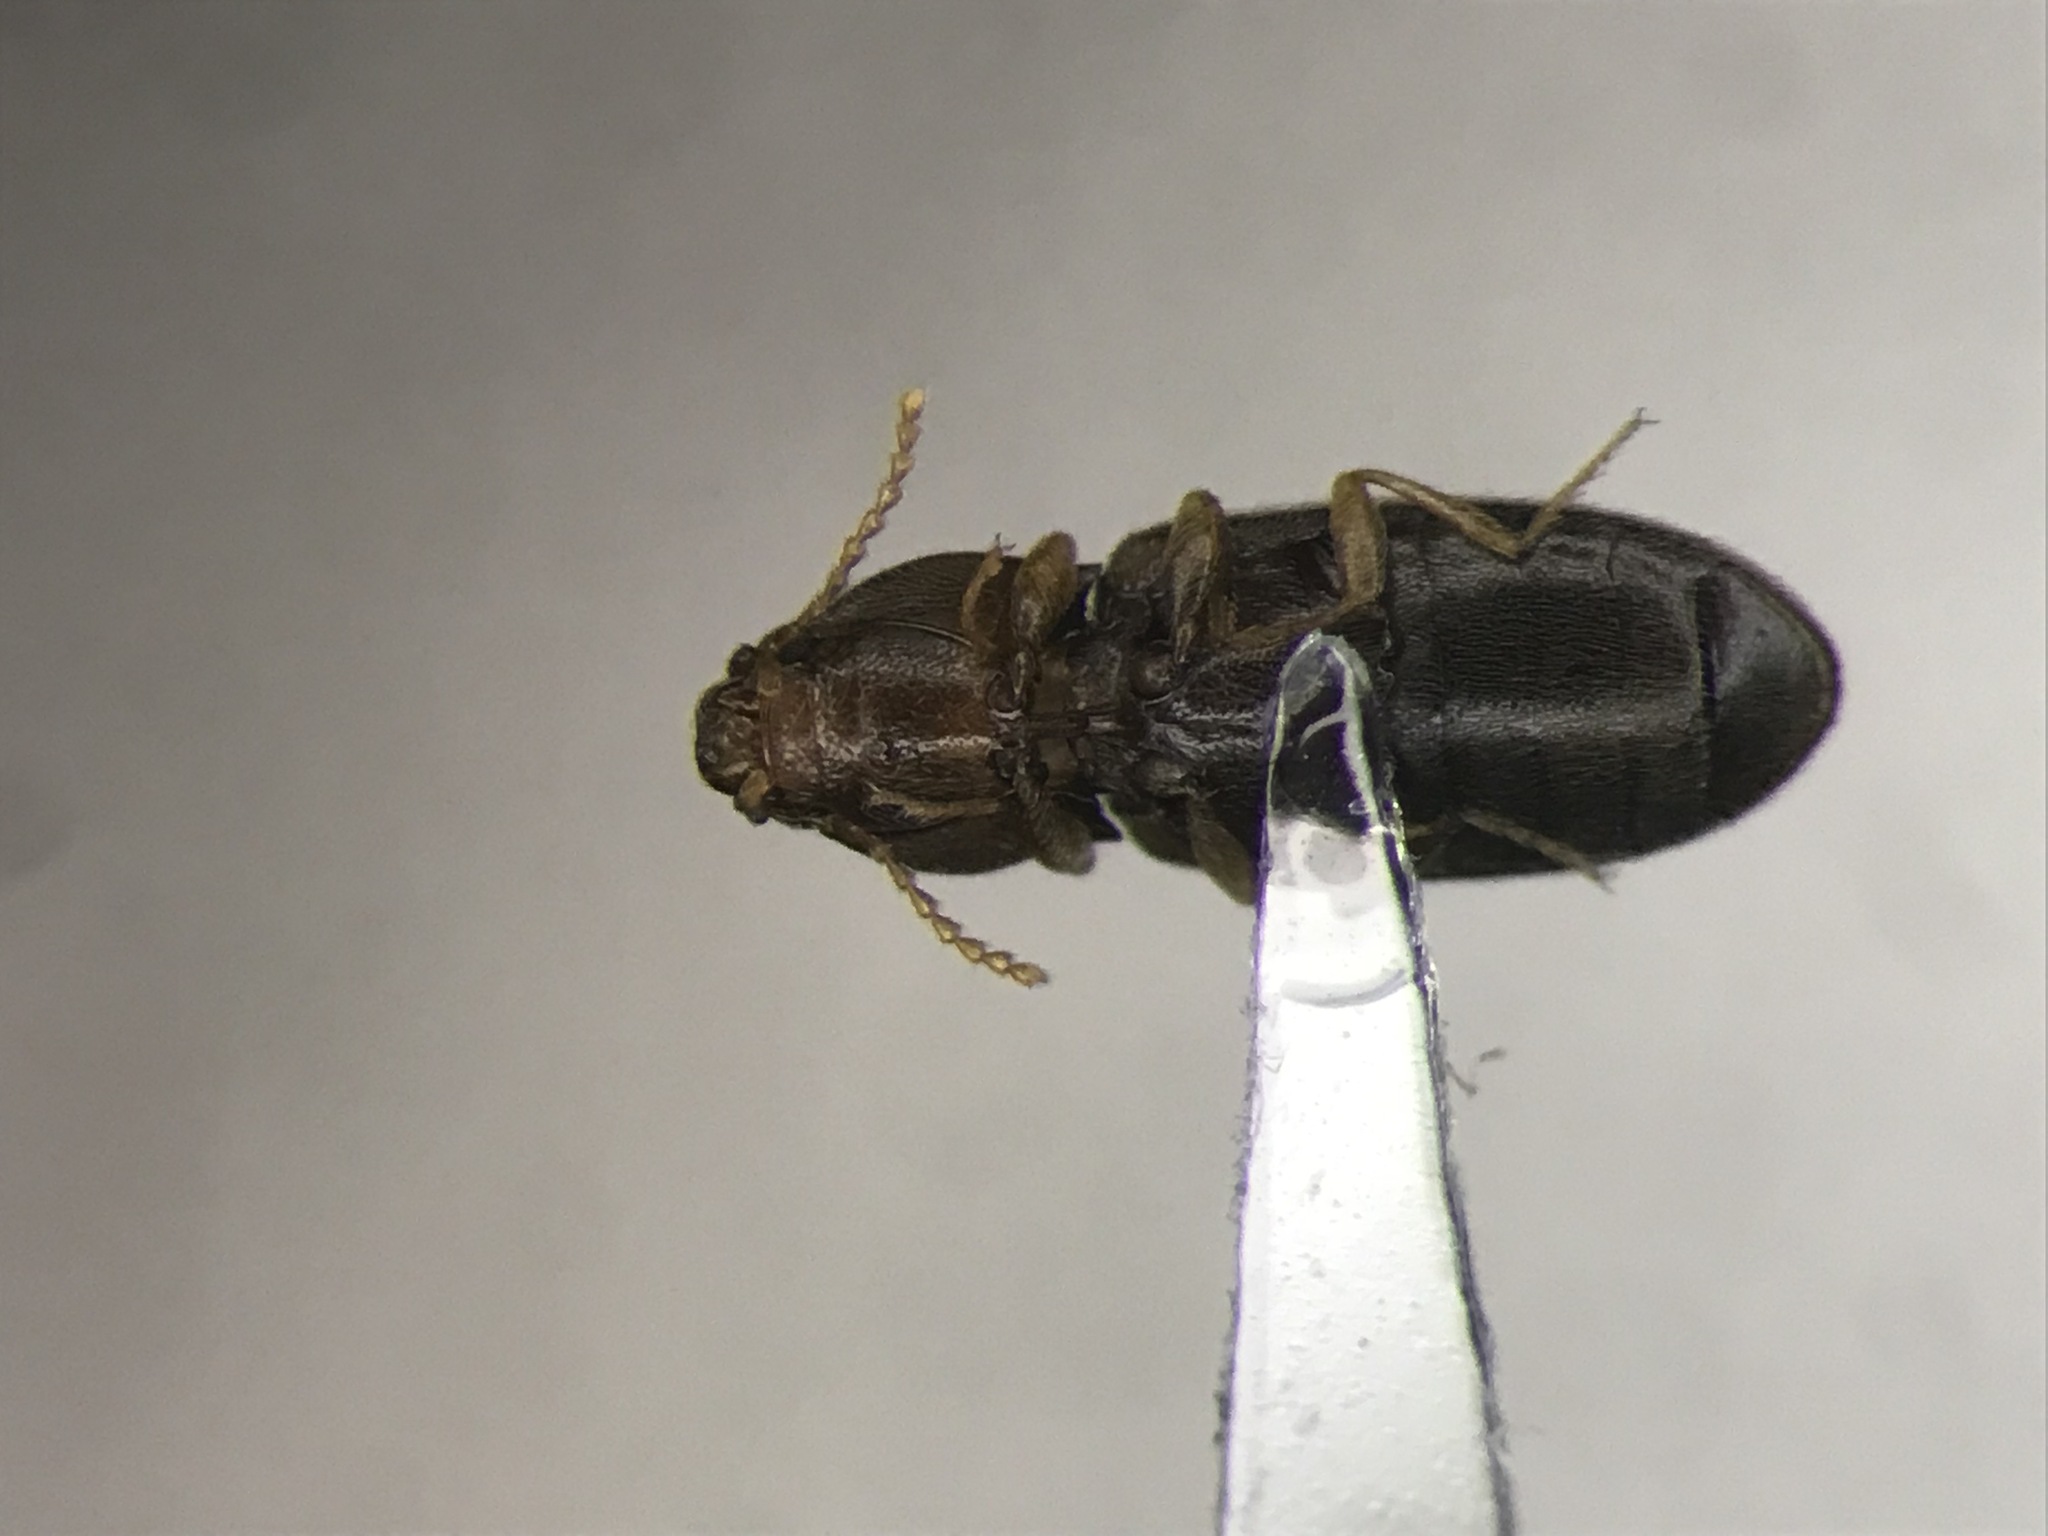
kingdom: Animalia
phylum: Arthropoda
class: Insecta
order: Coleoptera
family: Elateridae
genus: Paradonus
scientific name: Paradonus pectoralis
